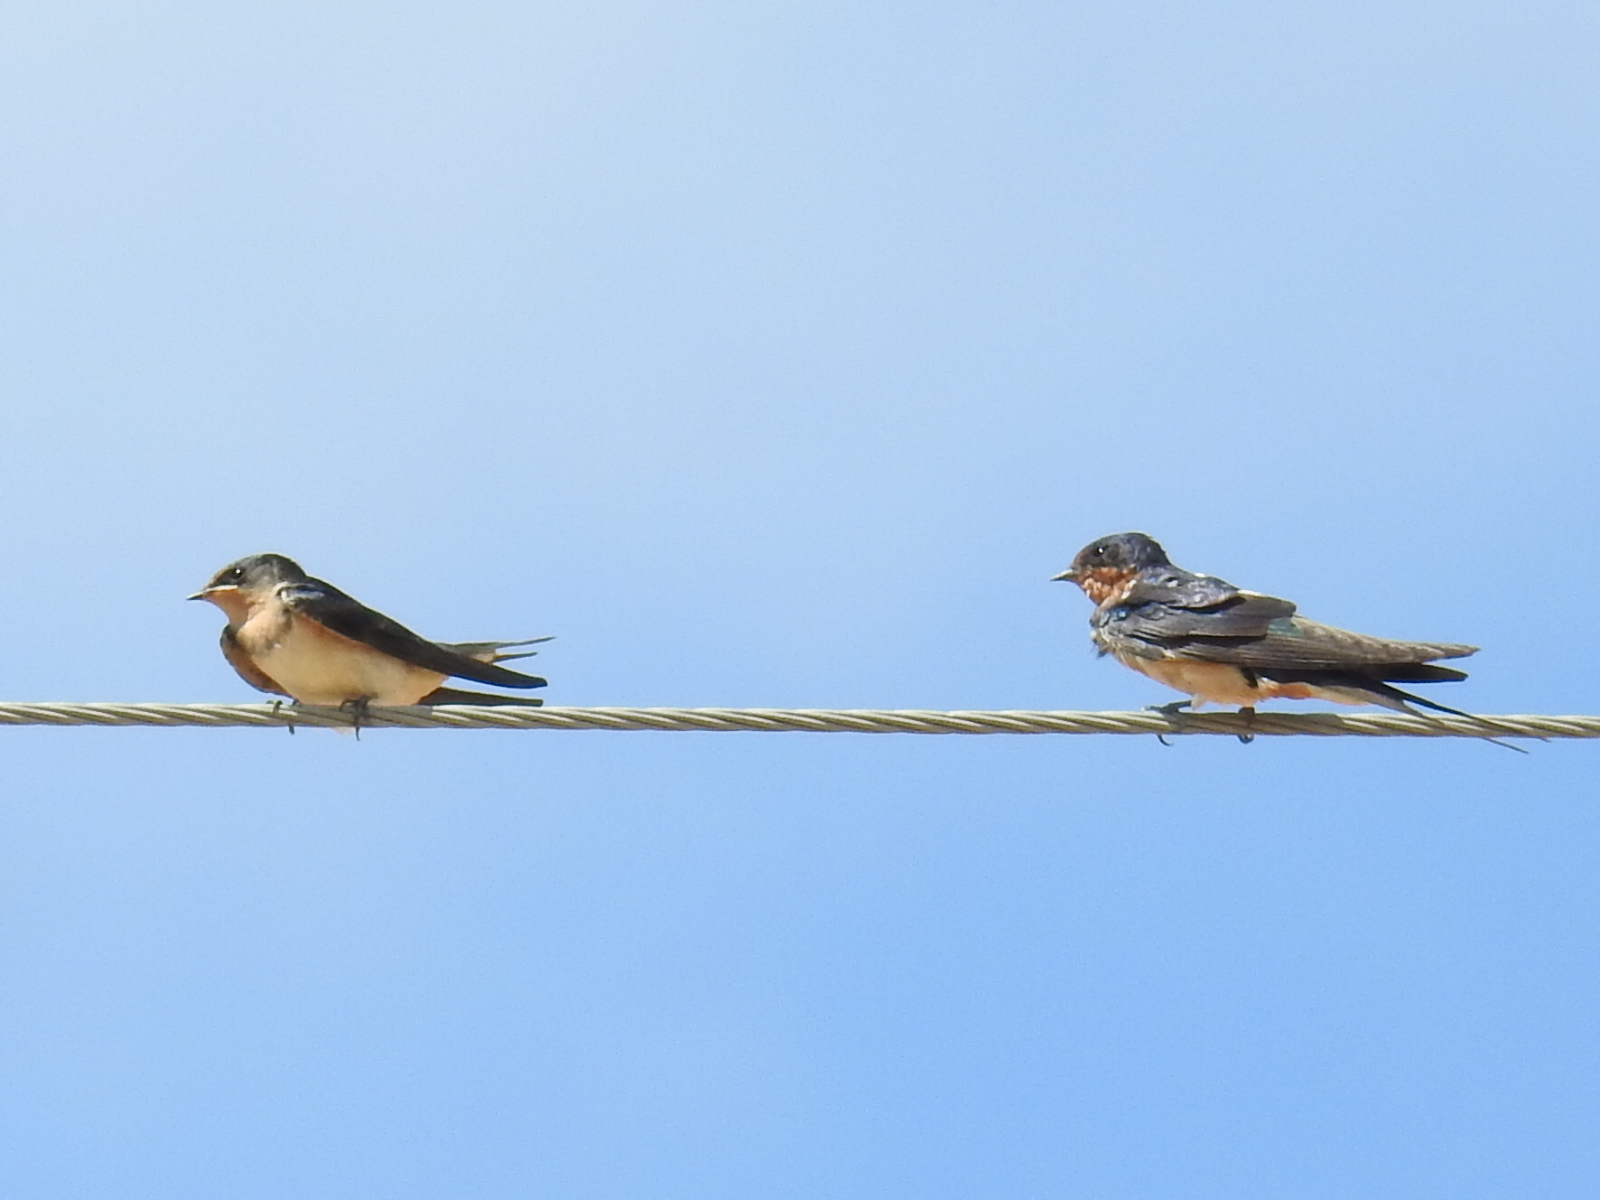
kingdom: Animalia
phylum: Chordata
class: Aves
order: Passeriformes
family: Hirundinidae
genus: Hirundo
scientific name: Hirundo rustica
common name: Barn swallow
